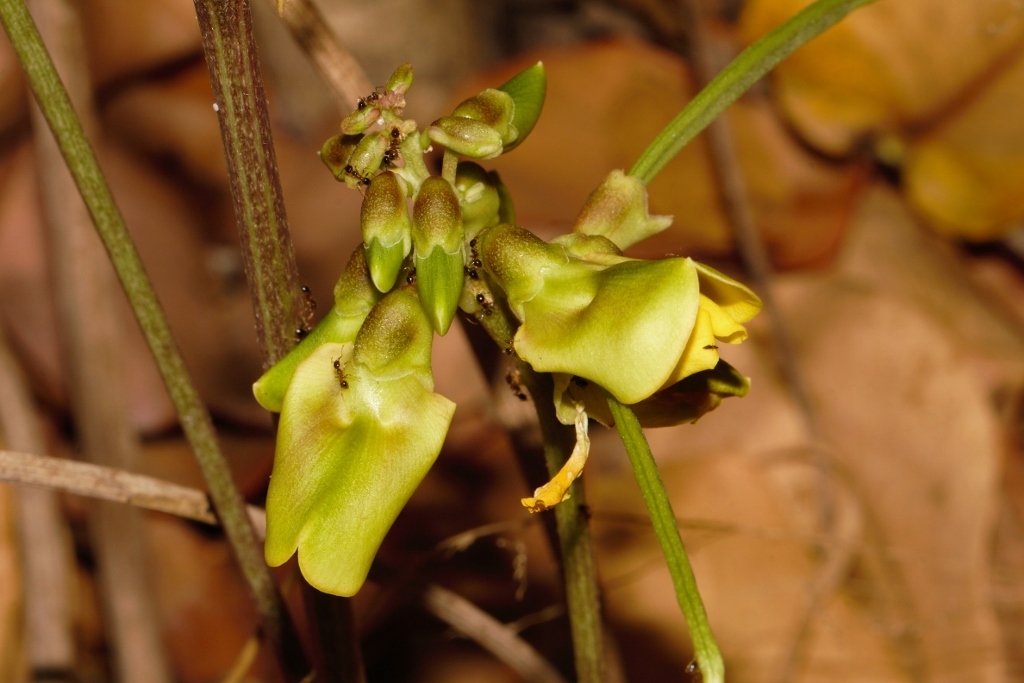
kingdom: Plantae
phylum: Tracheophyta
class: Magnoliopsida
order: Fabales
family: Fabaceae
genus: Sphenostylis
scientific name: Sphenostylis erecta
